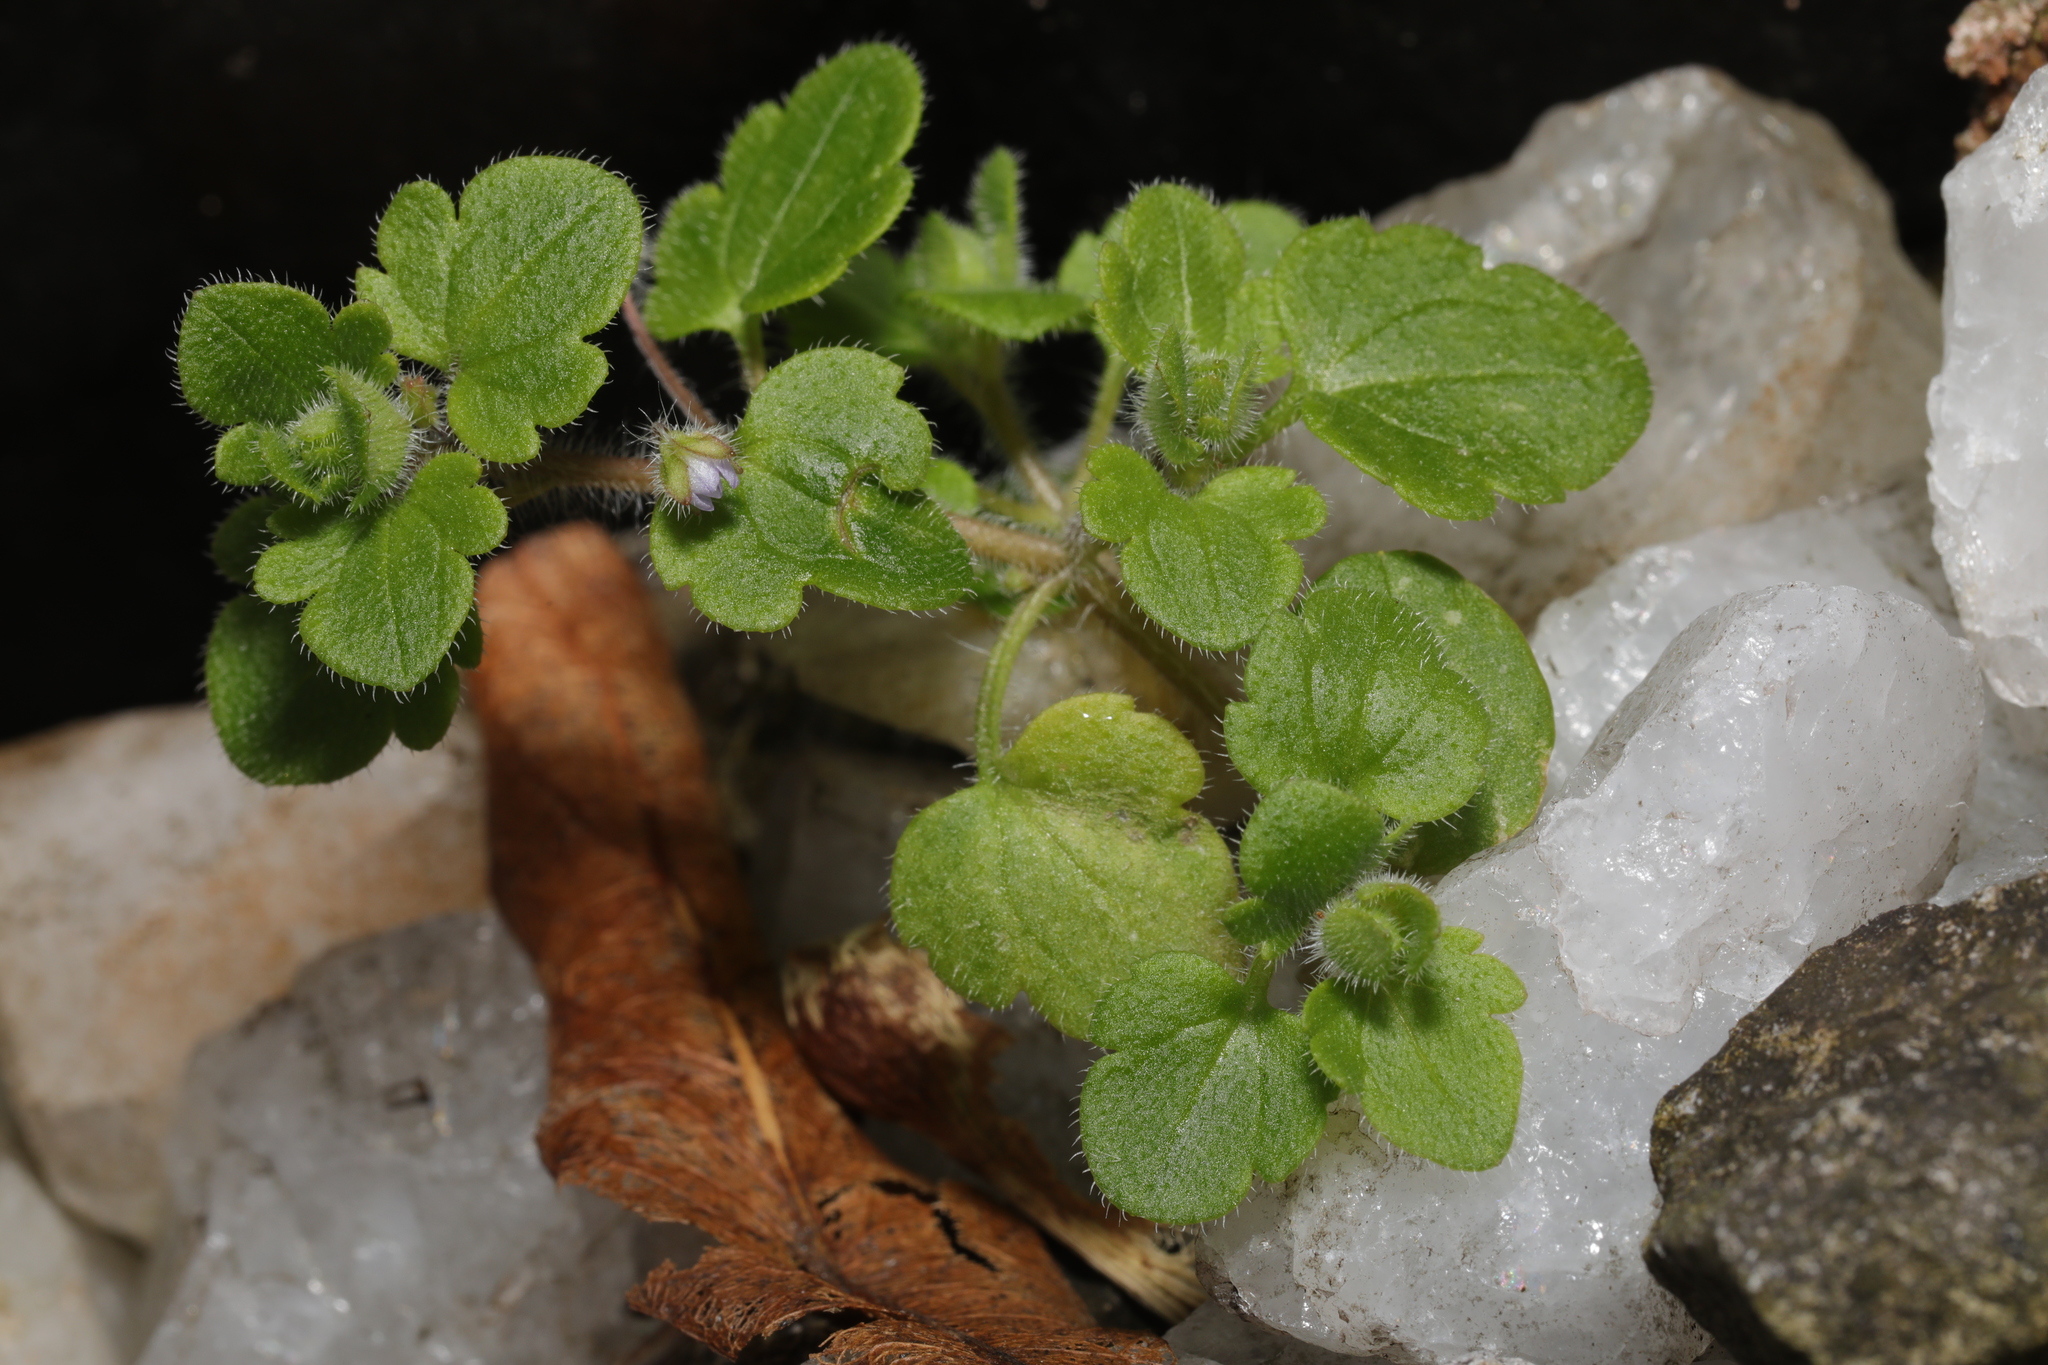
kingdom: Plantae
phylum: Tracheophyta
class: Magnoliopsida
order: Lamiales
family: Plantaginaceae
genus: Veronica
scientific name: Veronica hederifolia
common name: Ivy-leaved speedwell
